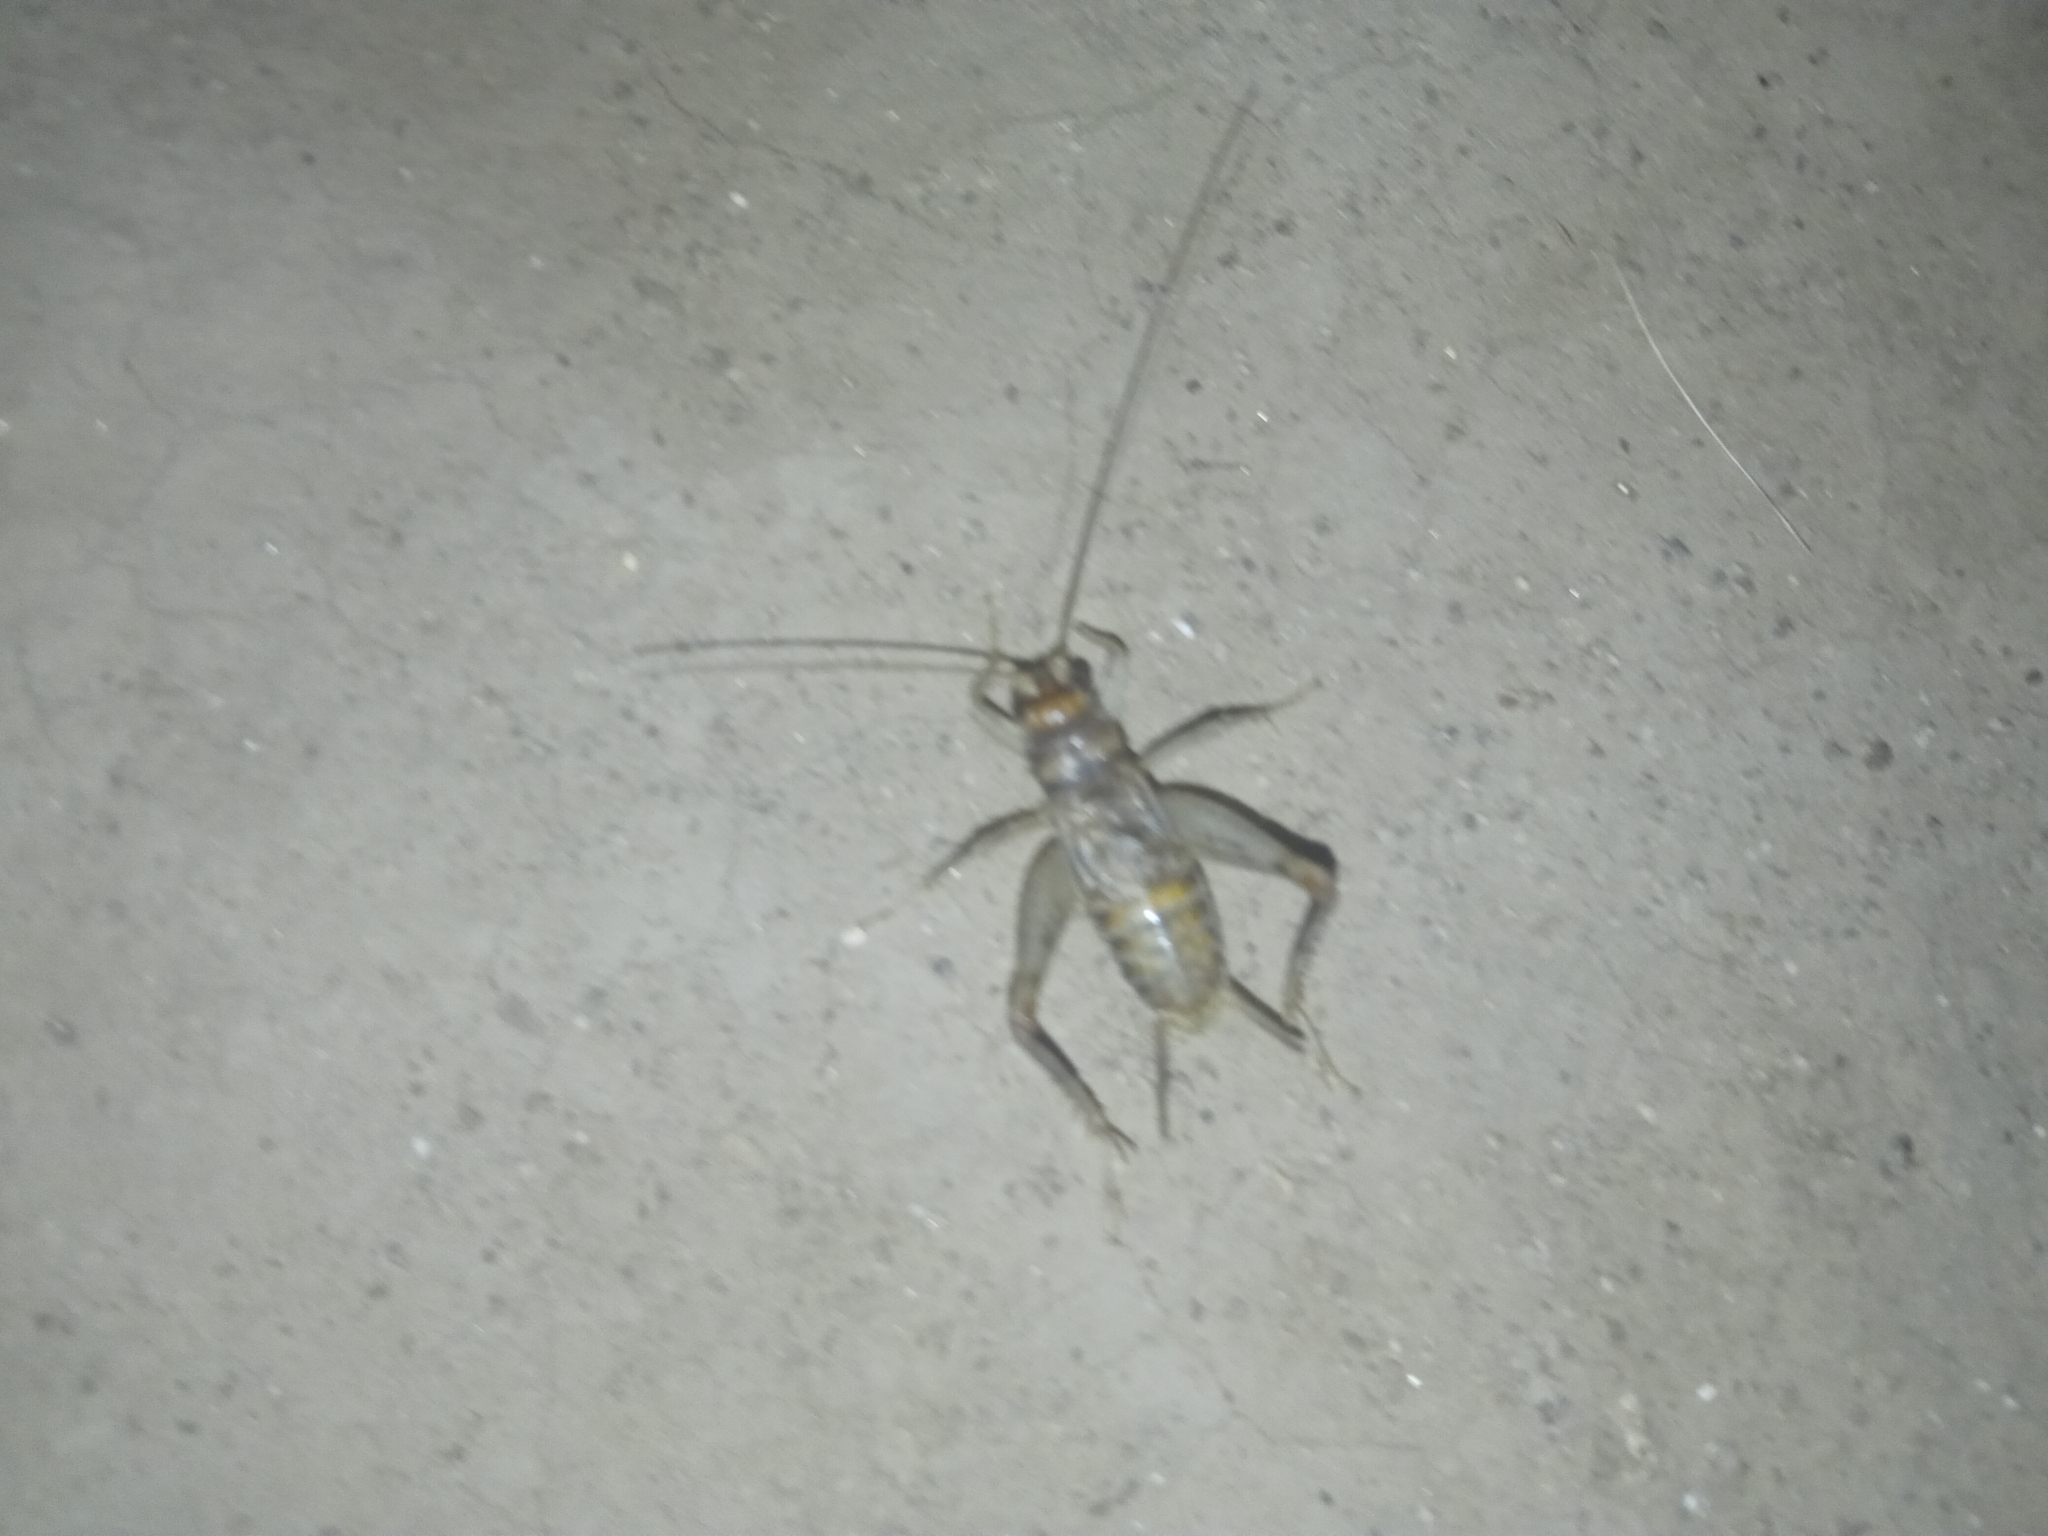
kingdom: Animalia
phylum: Arthropoda
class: Insecta
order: Orthoptera
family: Gryllidae
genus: Gryllodes
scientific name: Gryllodes sigillatus
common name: Tropical house cricket
